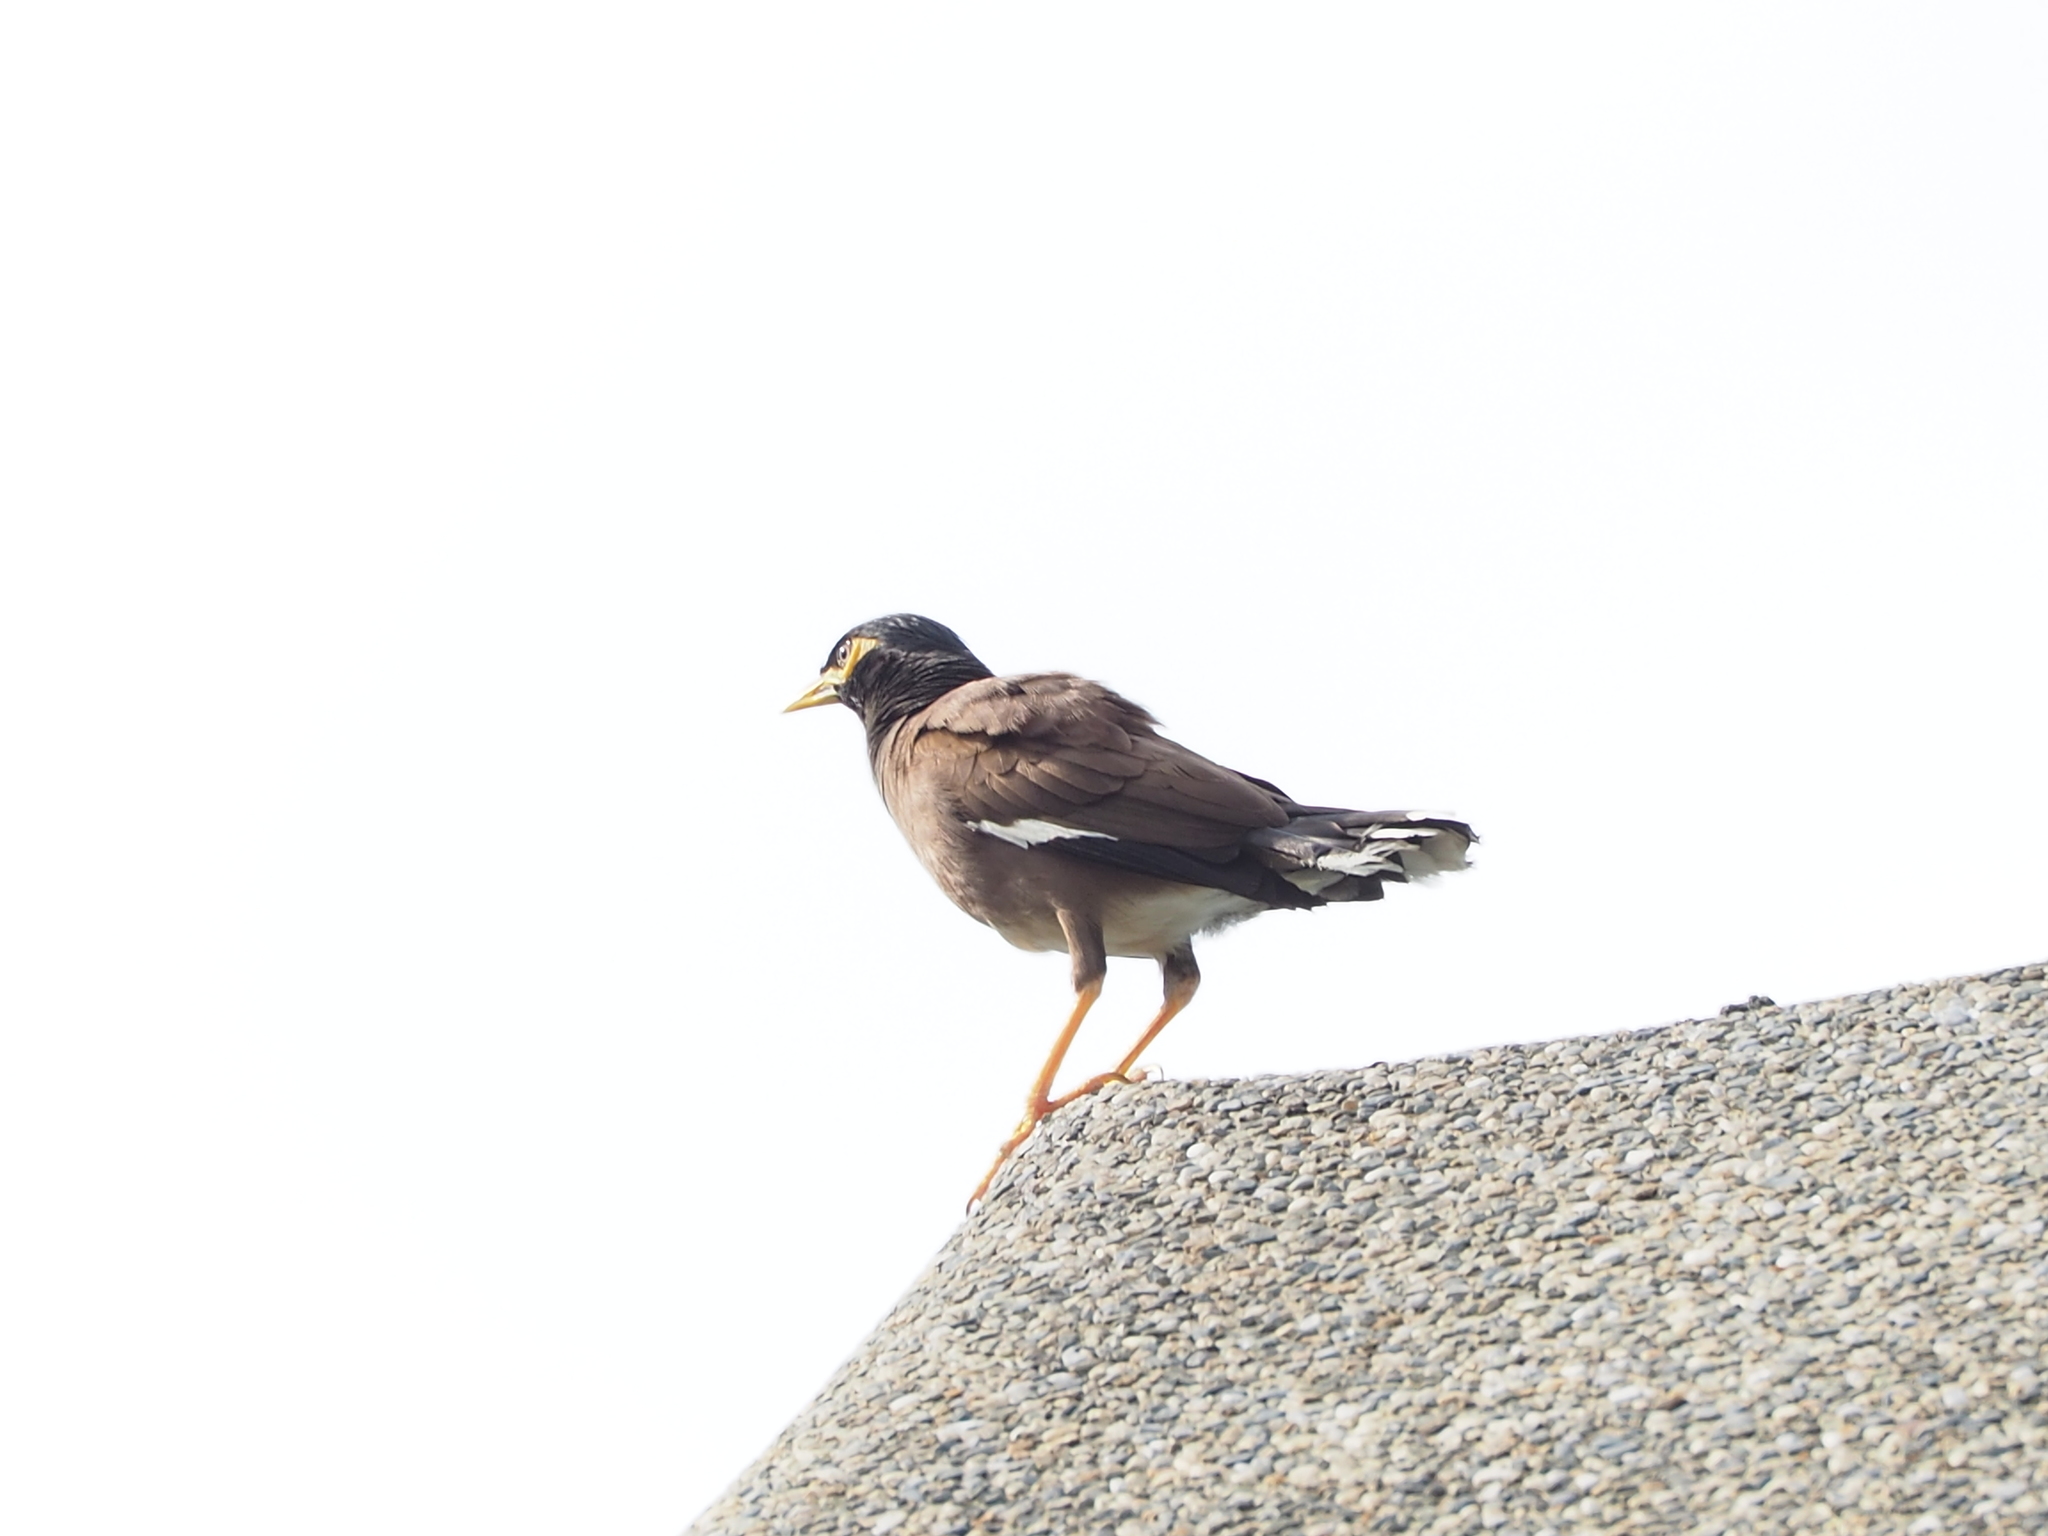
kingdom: Animalia
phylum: Chordata
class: Aves
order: Passeriformes
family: Sturnidae
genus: Acridotheres
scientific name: Acridotheres tristis
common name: Common myna
